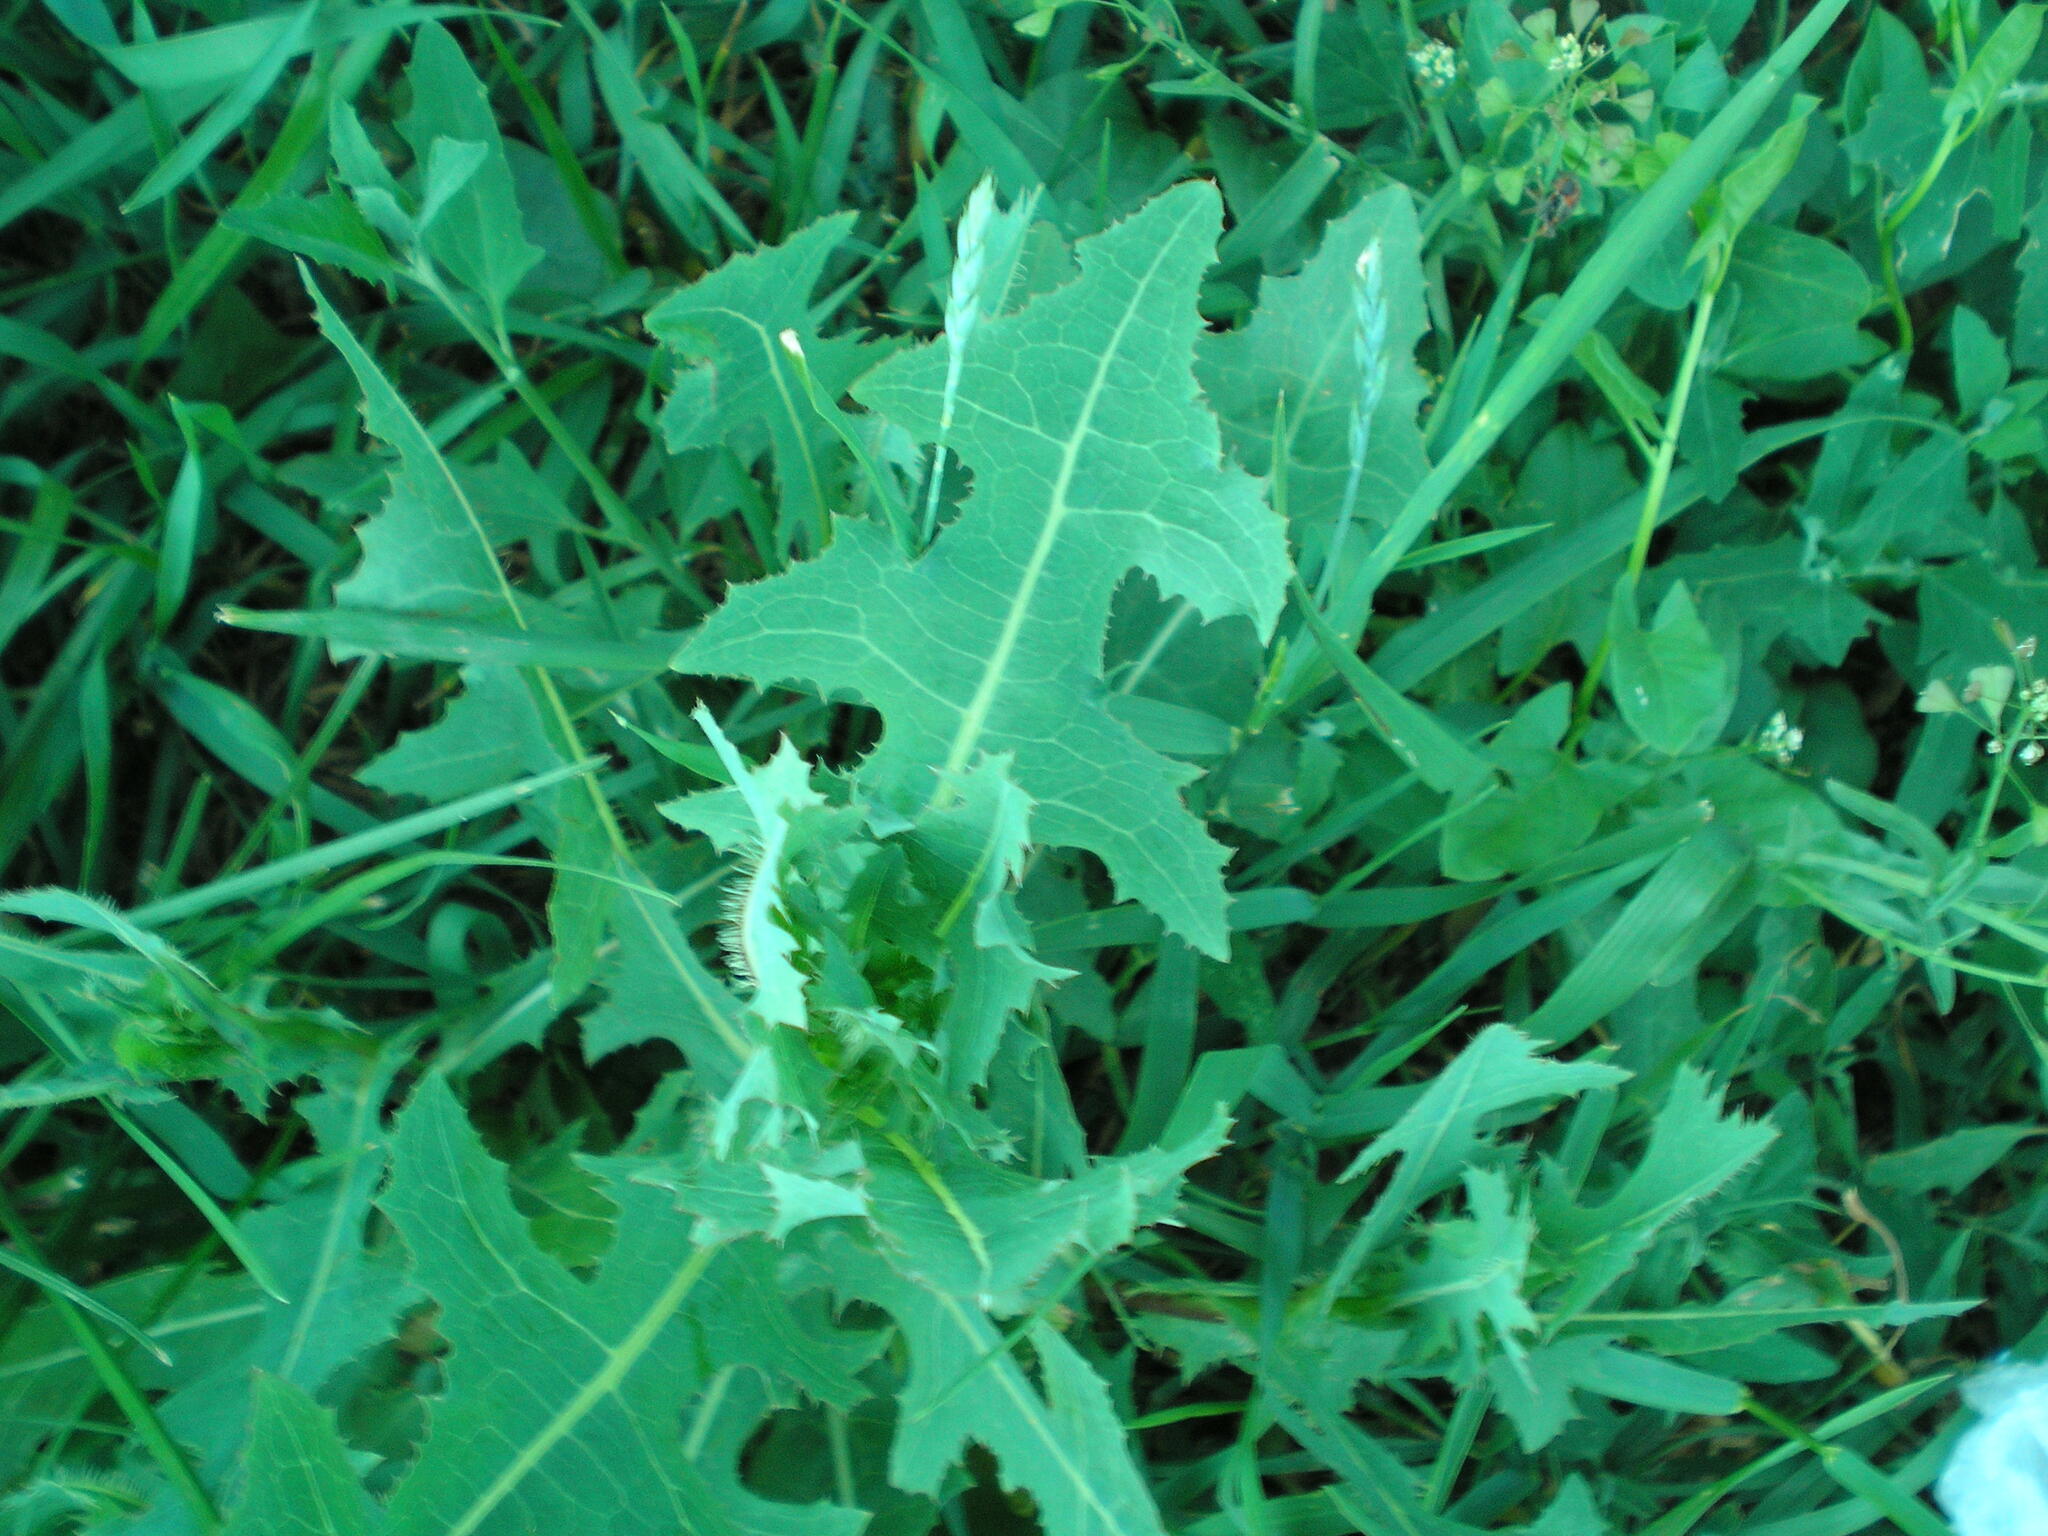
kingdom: Plantae
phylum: Tracheophyta
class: Magnoliopsida
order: Asterales
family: Asteraceae
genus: Lactuca
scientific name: Lactuca serriola
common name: Prickly lettuce
